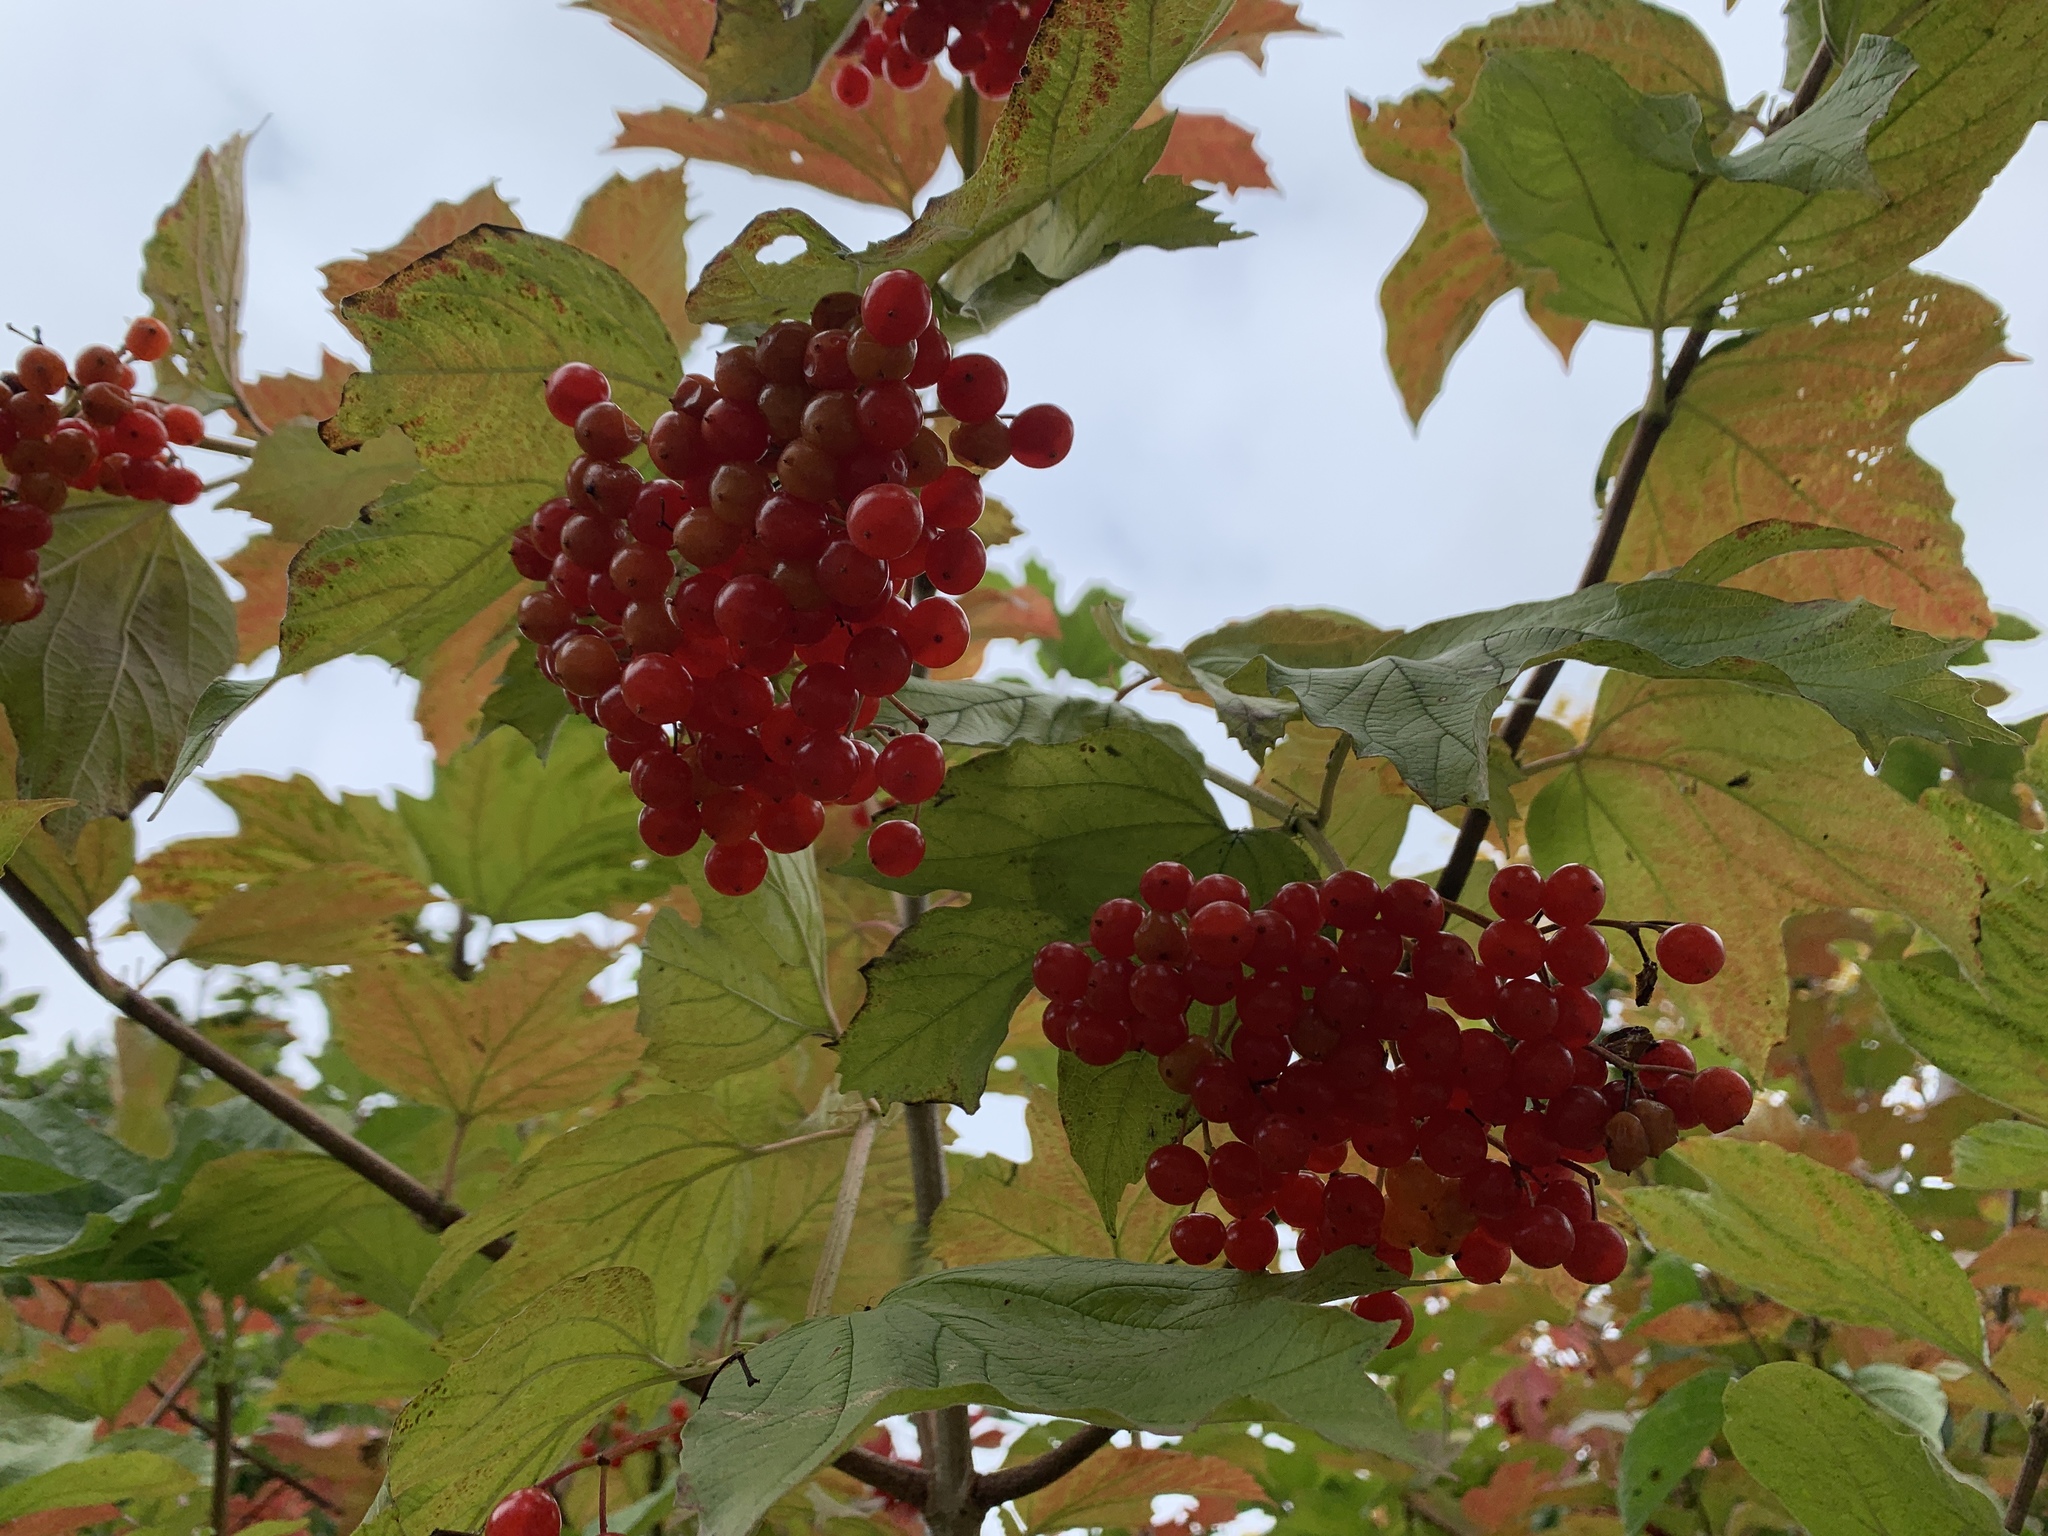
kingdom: Plantae
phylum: Tracheophyta
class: Magnoliopsida
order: Dipsacales
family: Viburnaceae
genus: Viburnum
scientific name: Viburnum opulus
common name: Guelder-rose
